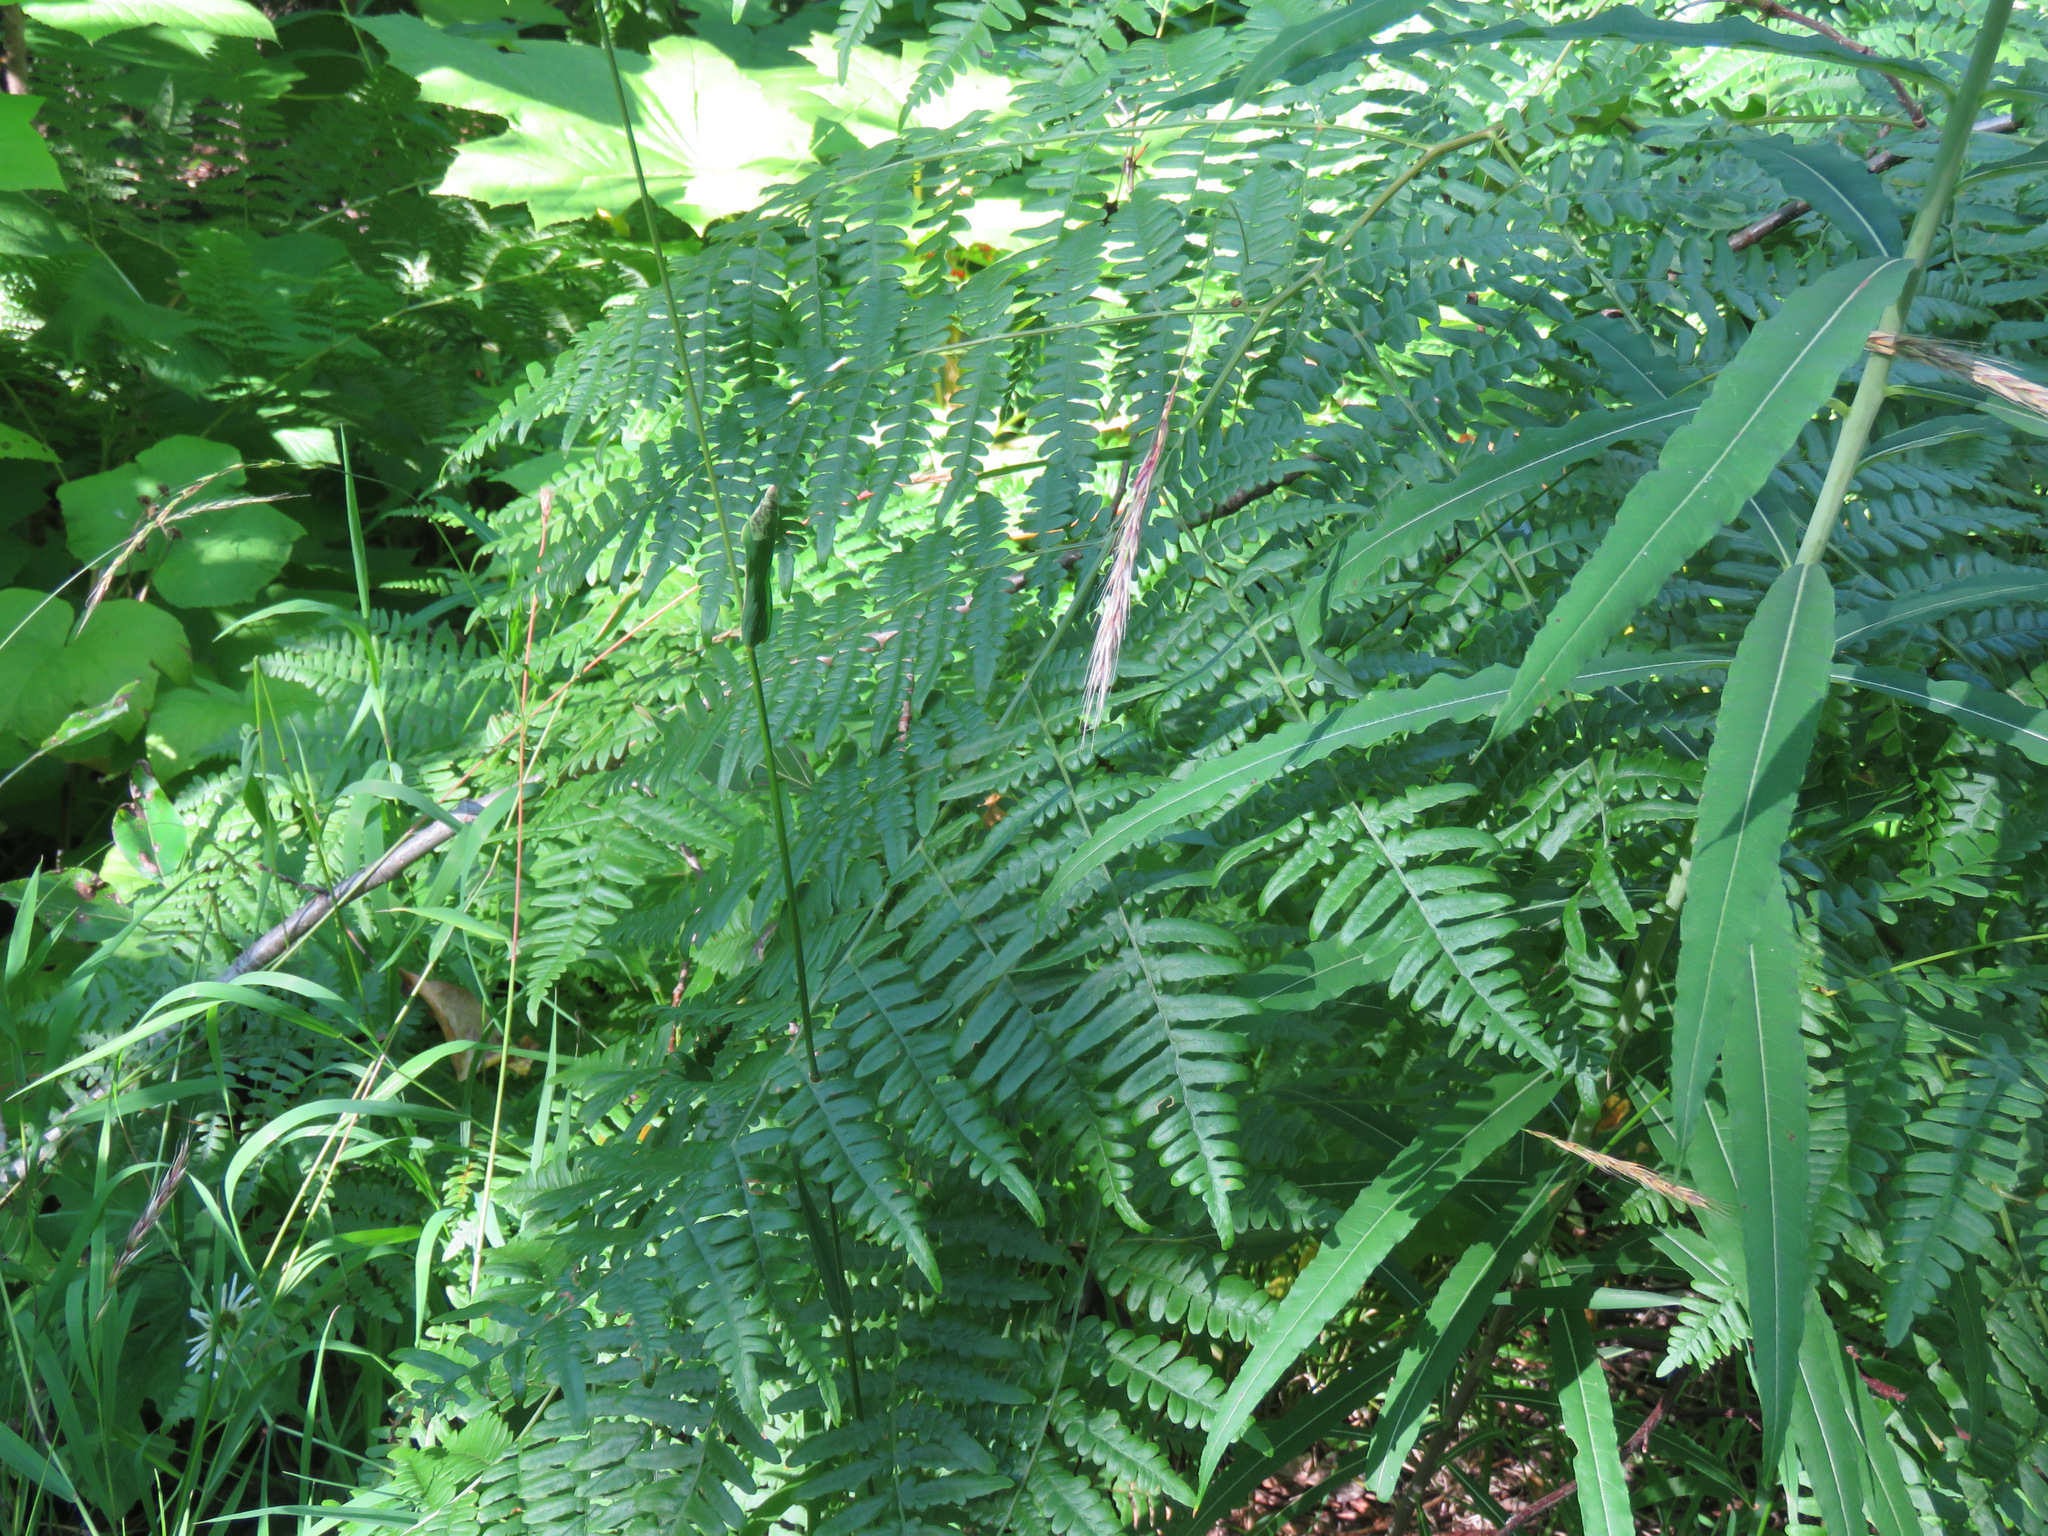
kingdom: Plantae
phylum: Tracheophyta
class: Polypodiopsida
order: Polypodiales
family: Dennstaedtiaceae
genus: Pteridium
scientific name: Pteridium aquilinum
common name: Bracken
